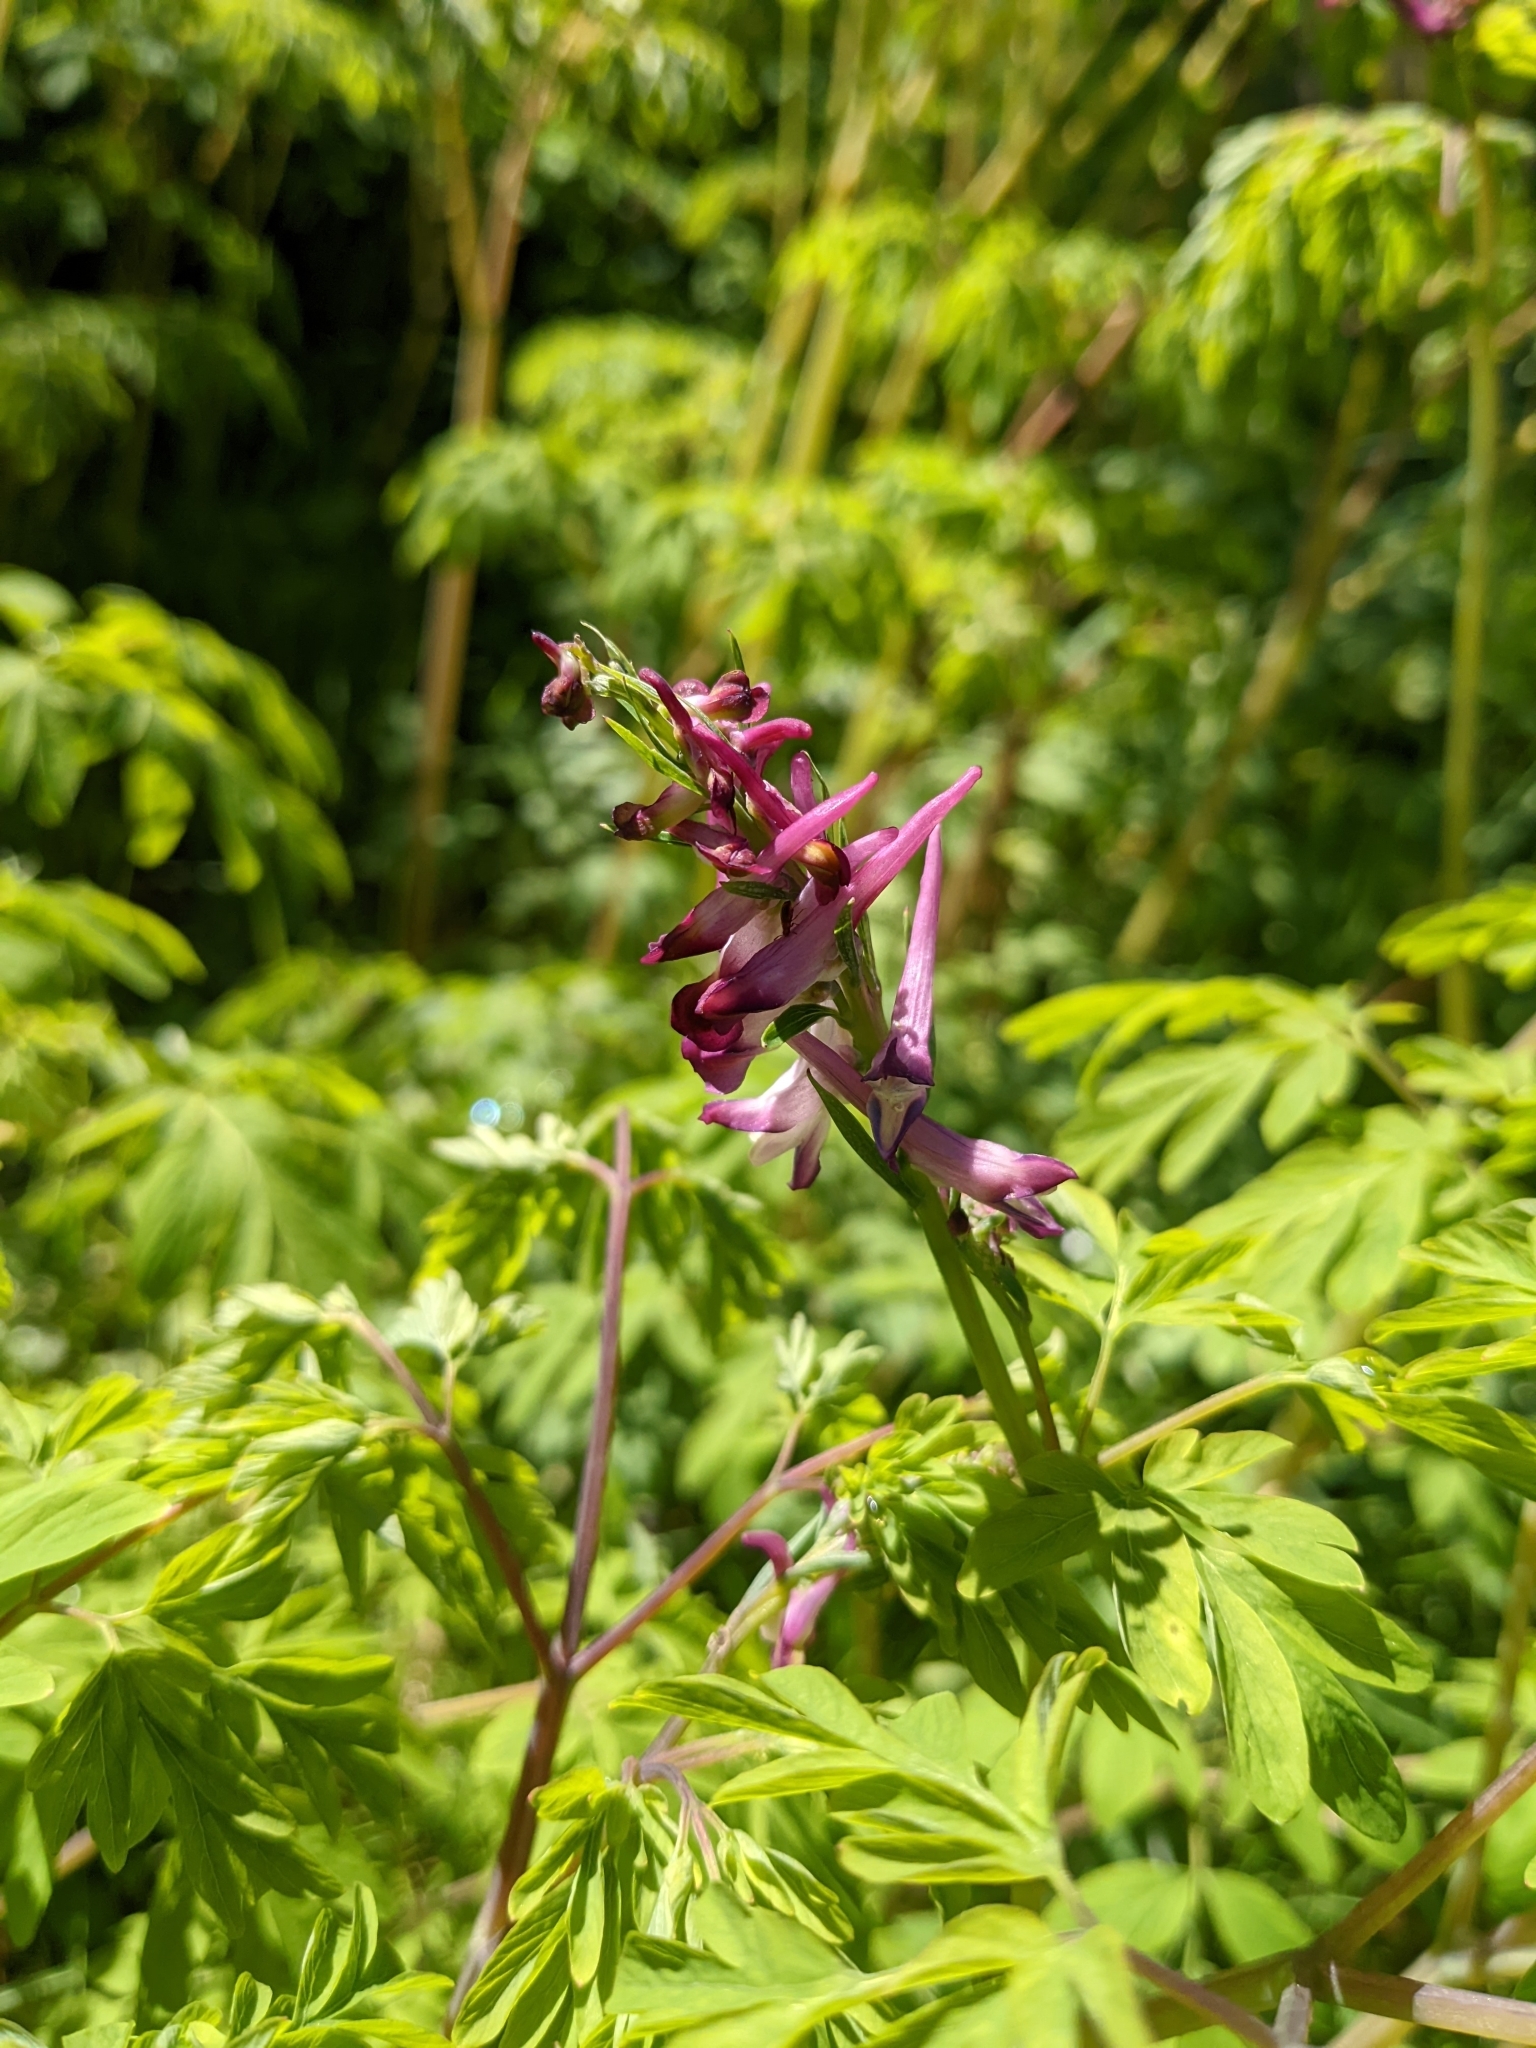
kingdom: Plantae
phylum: Tracheophyta
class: Magnoliopsida
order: Ranunculales
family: Papaveraceae
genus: Corydalis
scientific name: Corydalis scouleri
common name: Scouler's corydalis
